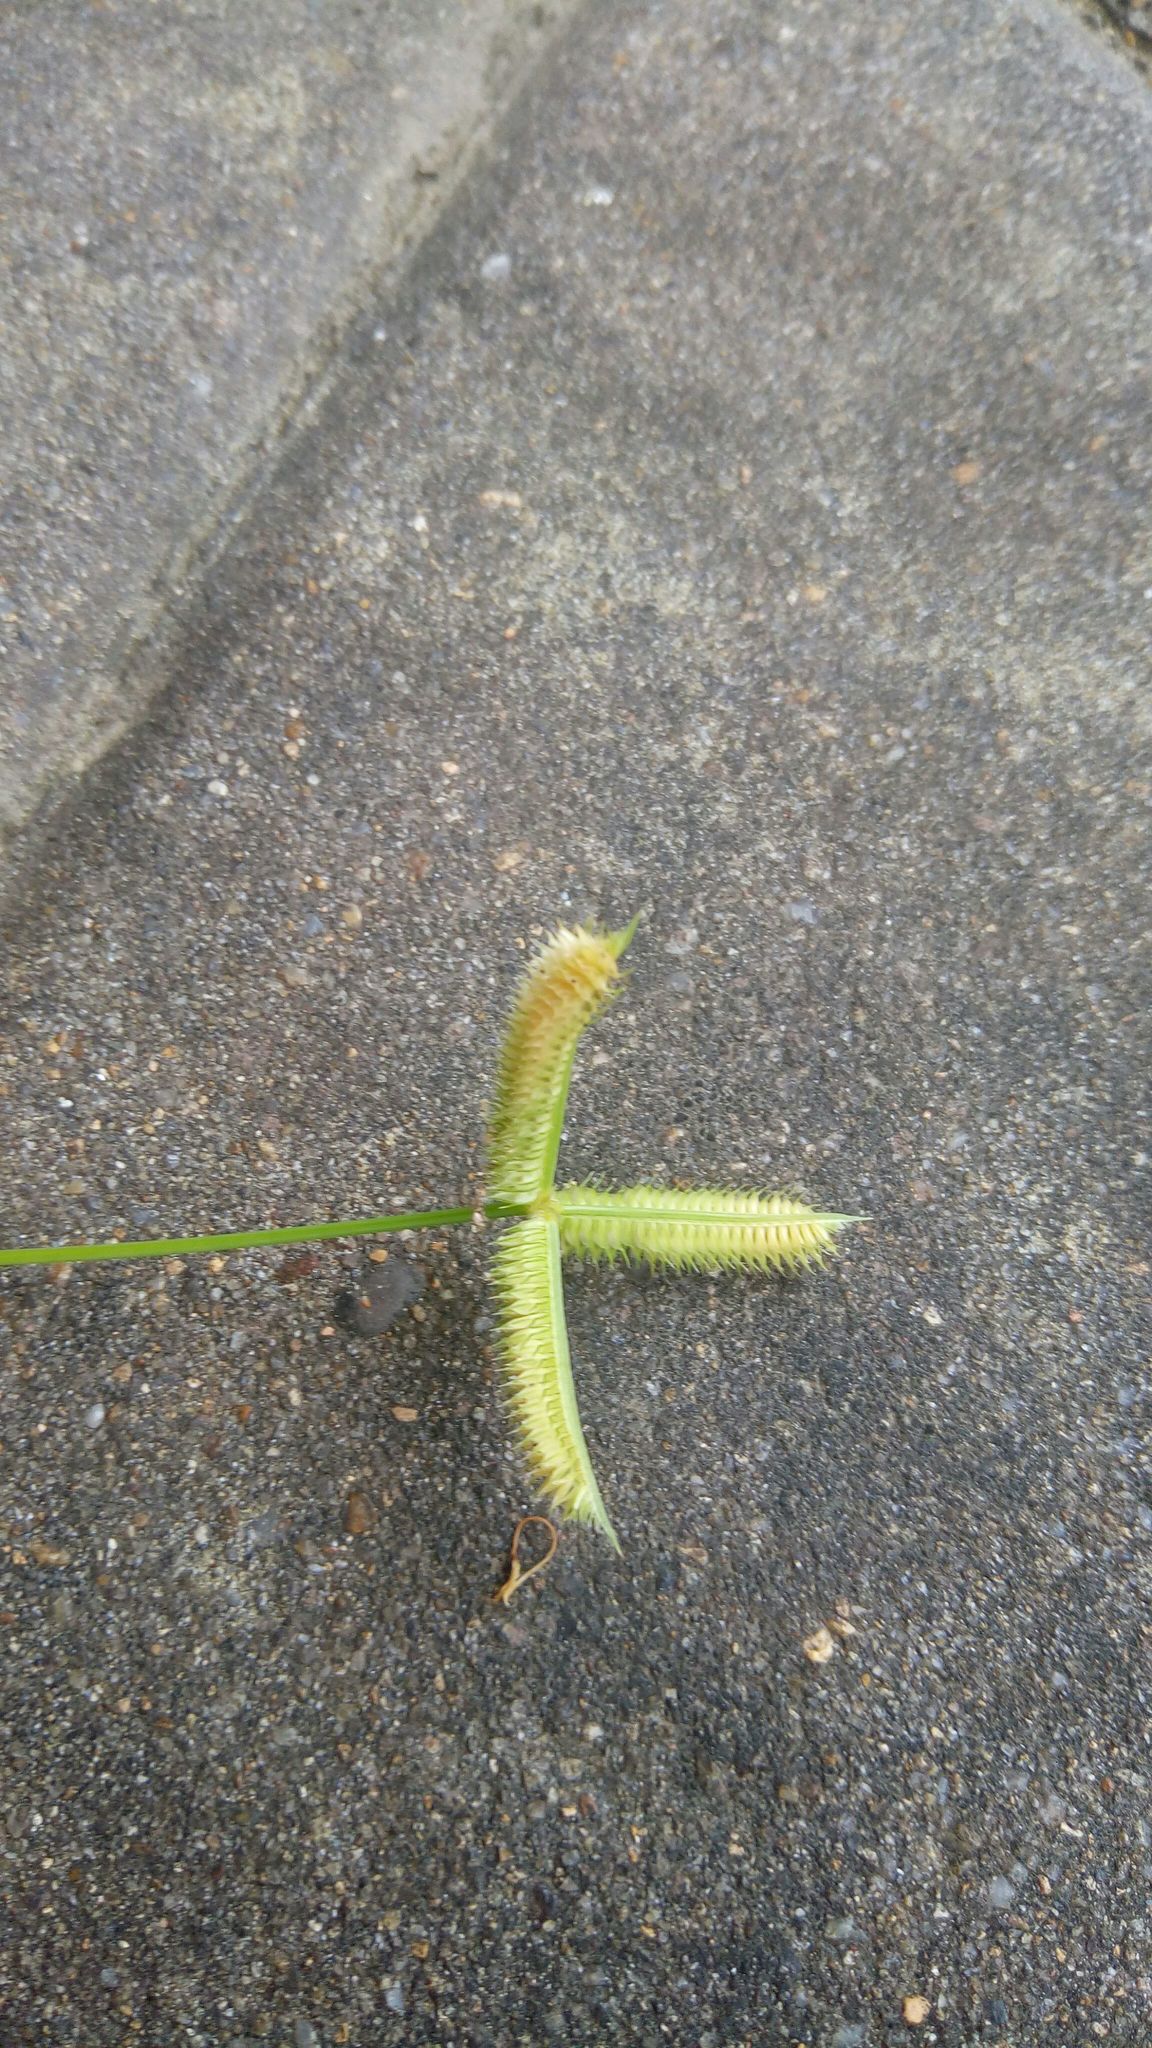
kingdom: Plantae
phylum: Tracheophyta
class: Liliopsida
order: Poales
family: Poaceae
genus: Dactyloctenium
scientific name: Dactyloctenium aegyptium
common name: Egyptian grass
